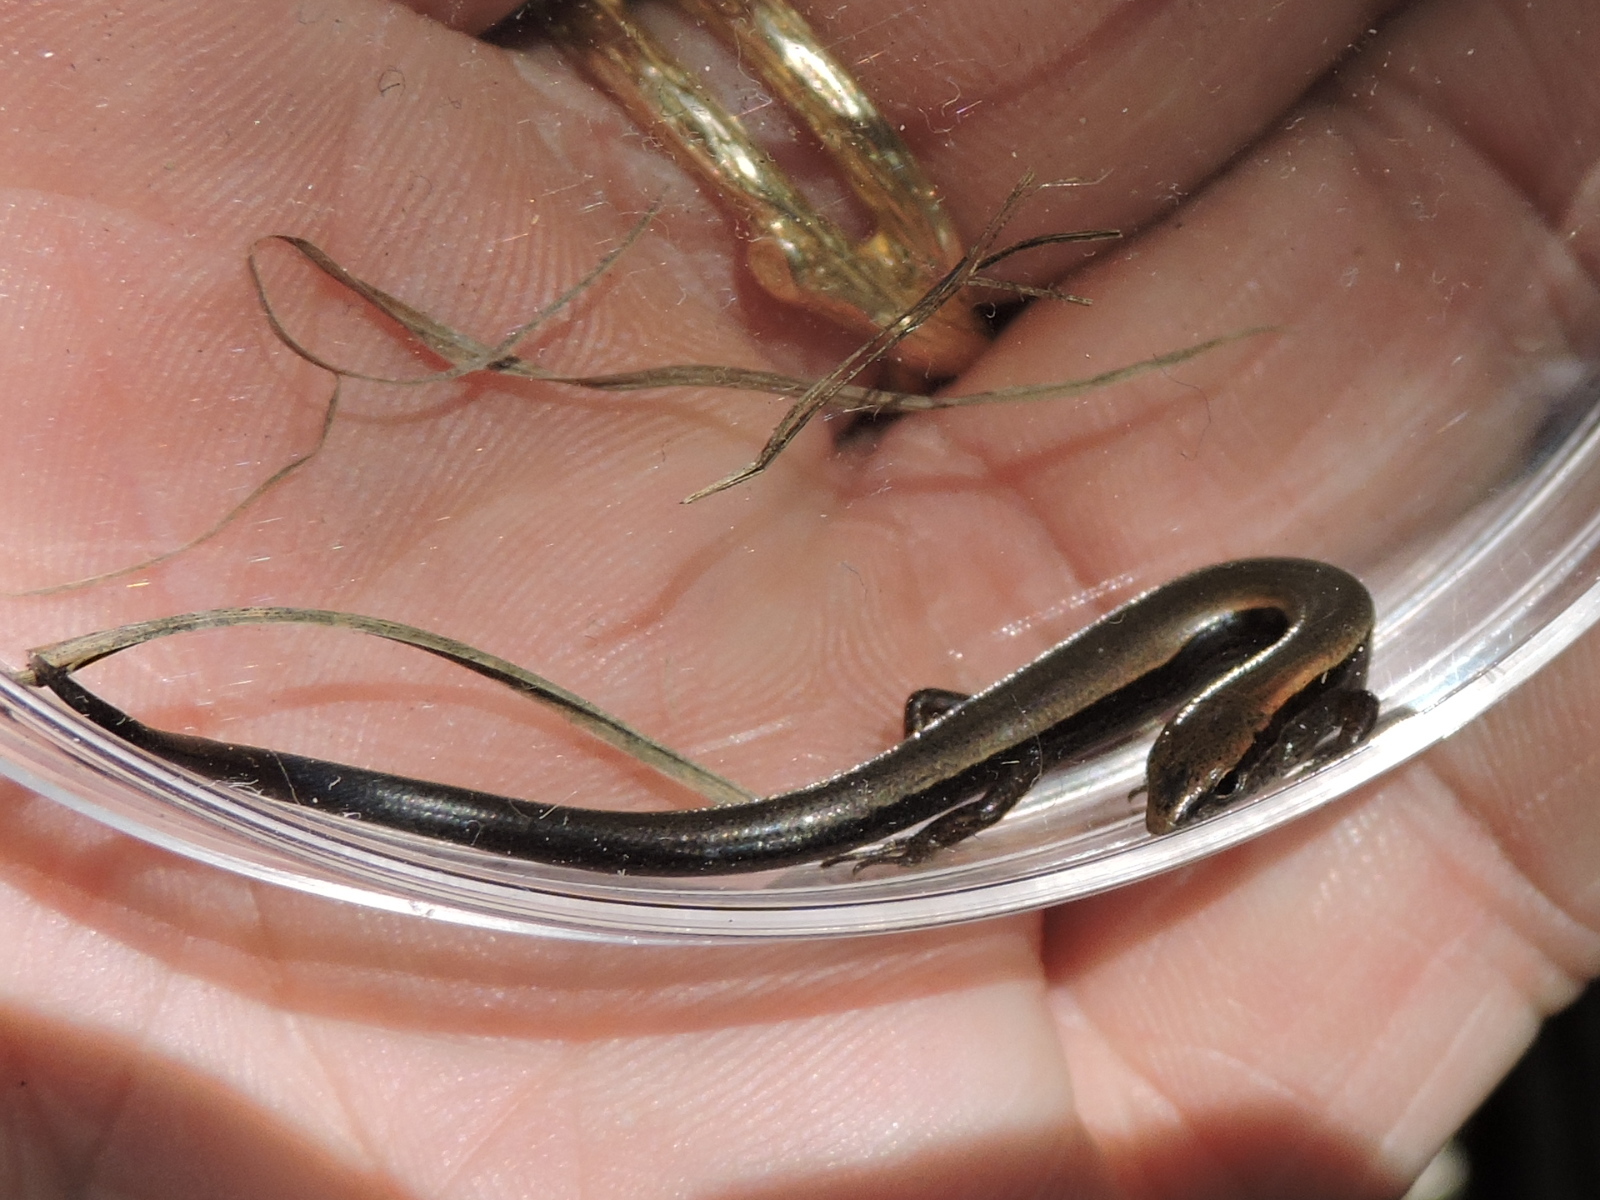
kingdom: Animalia
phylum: Chordata
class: Squamata
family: Scincidae
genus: Scincella
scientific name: Scincella lateralis
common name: Ground skink
